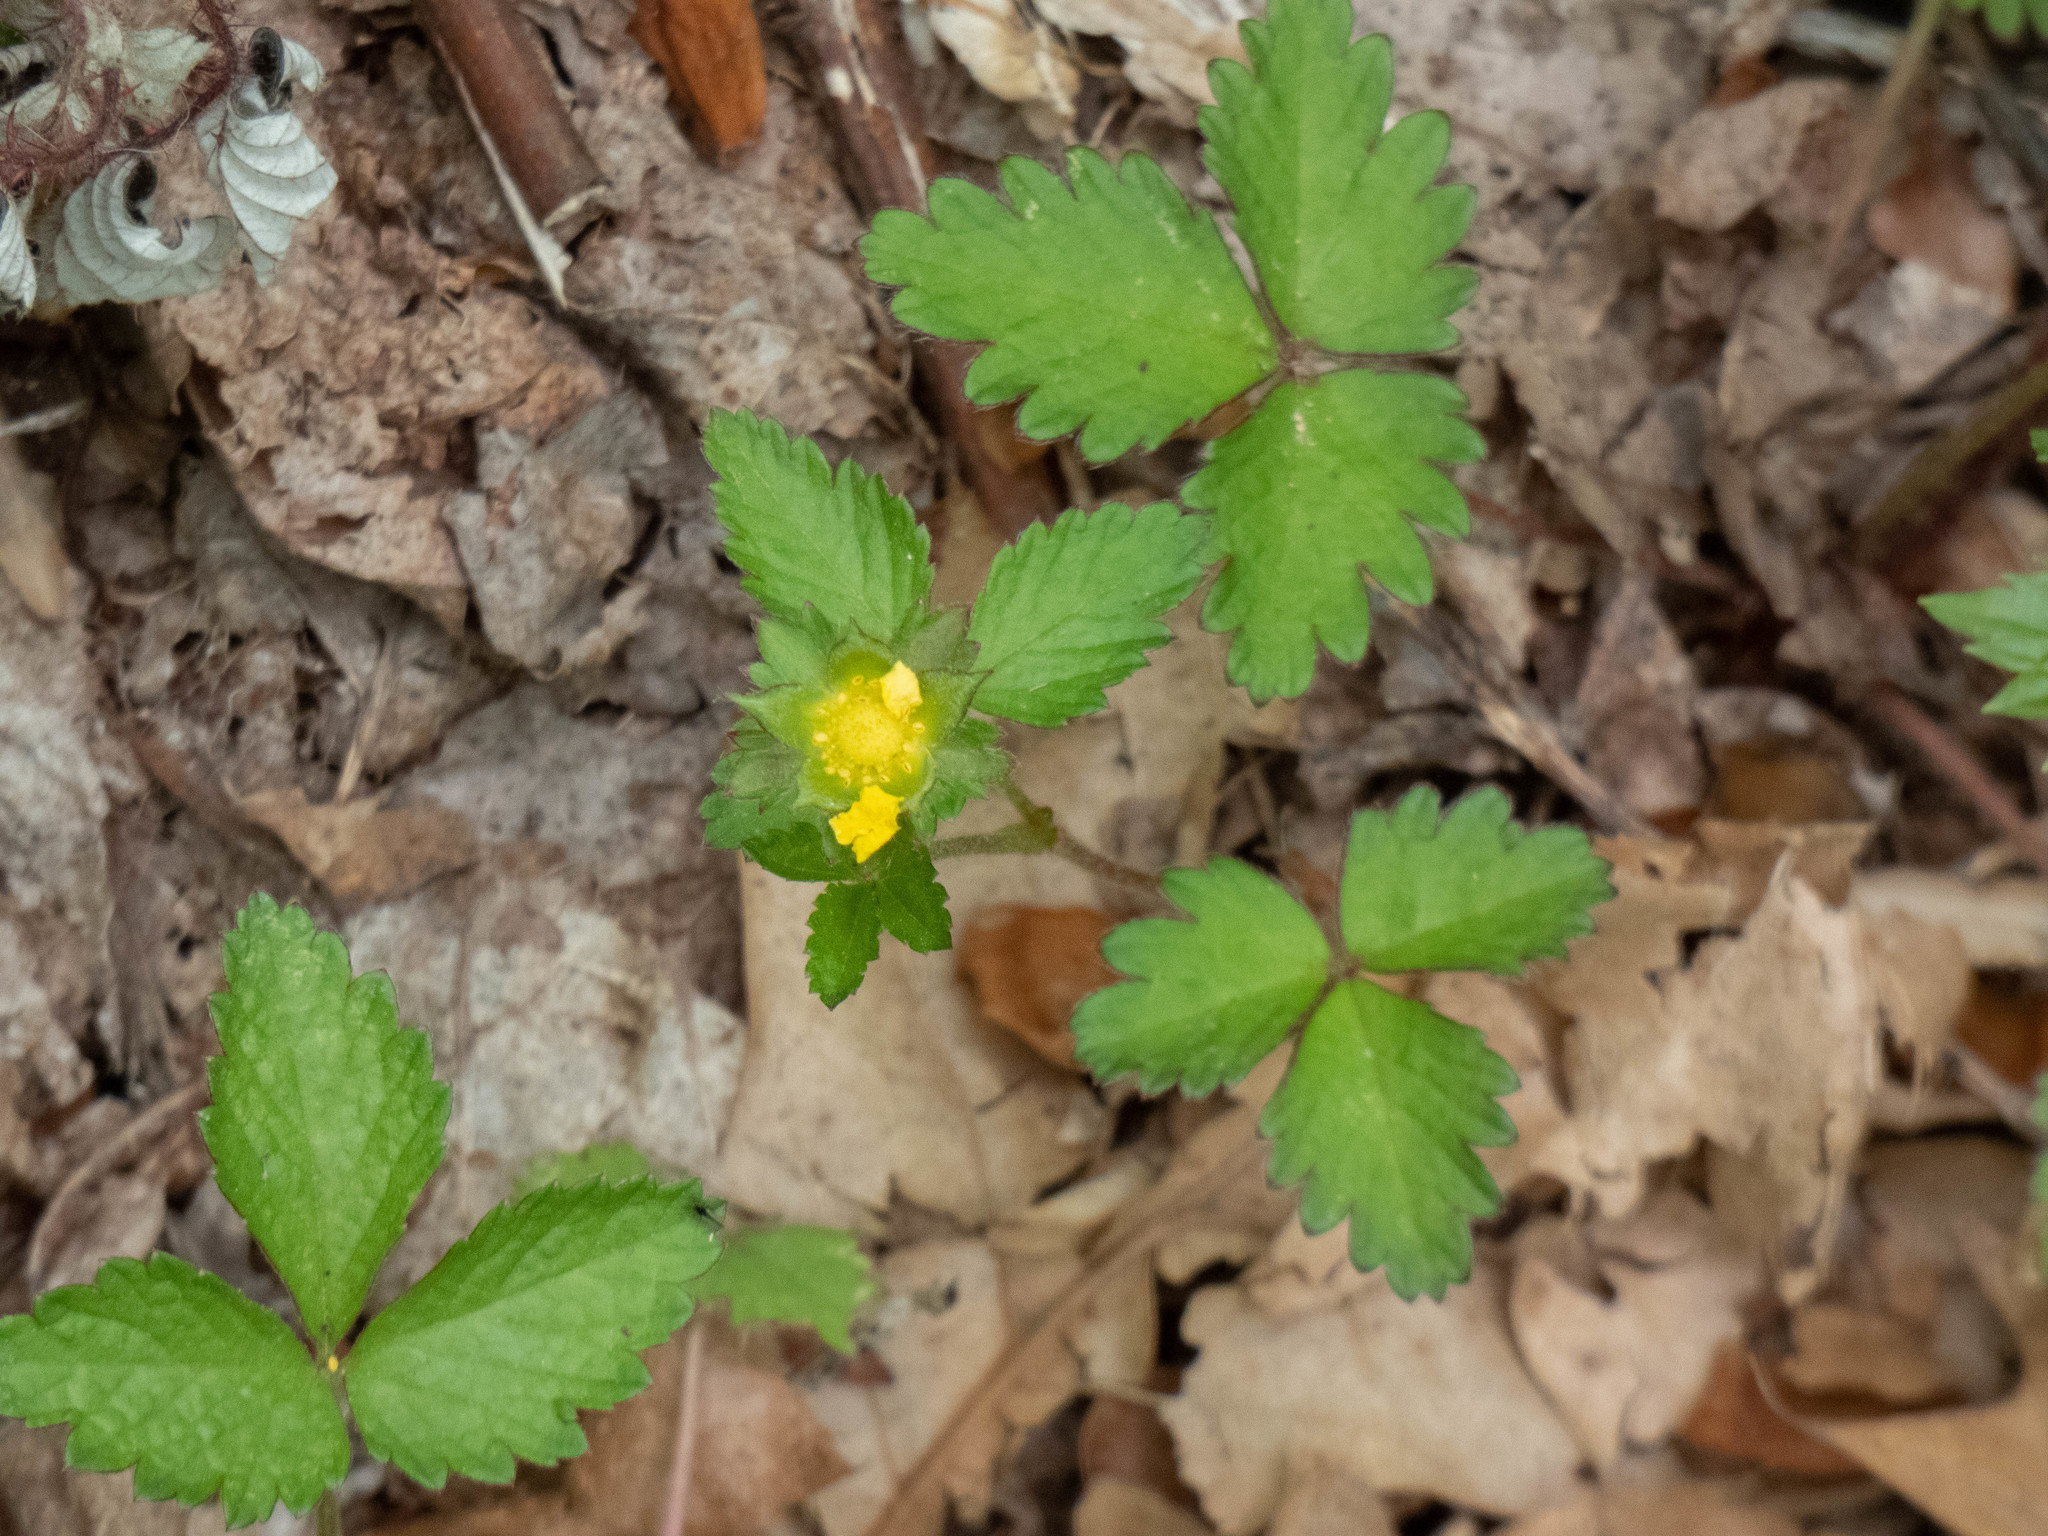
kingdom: Plantae
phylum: Tracheophyta
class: Magnoliopsida
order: Rosales
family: Rosaceae
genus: Potentilla
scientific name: Potentilla indica
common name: Yellow-flowered strawberry
